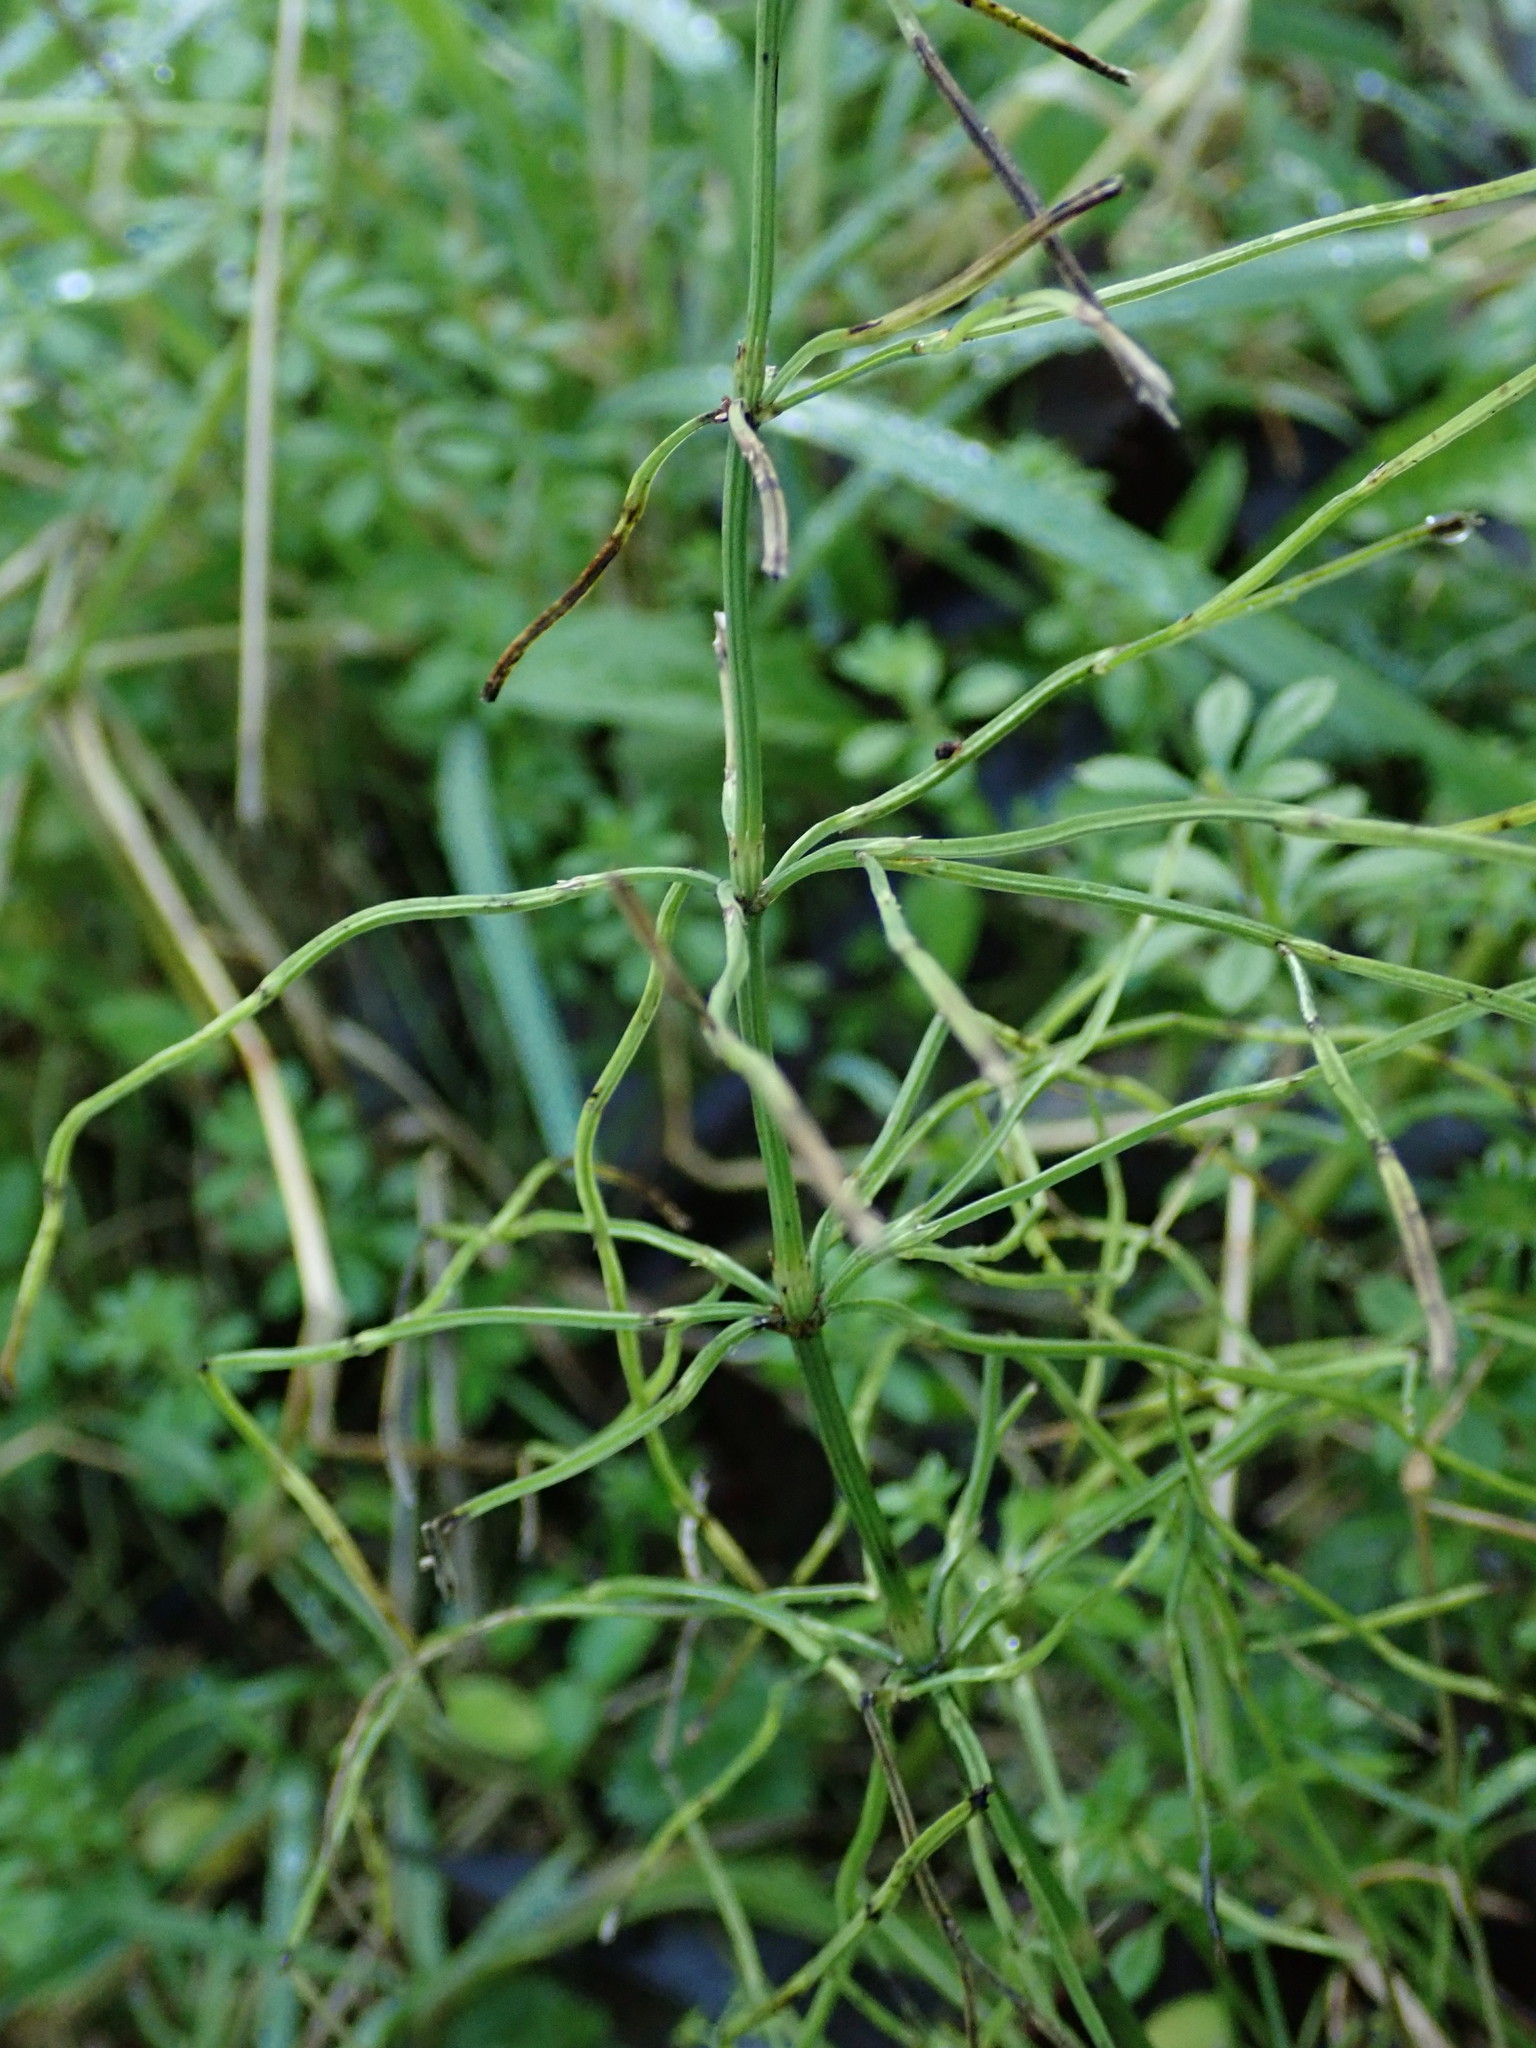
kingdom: Plantae
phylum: Tracheophyta
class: Polypodiopsida
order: Equisetales
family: Equisetaceae
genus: Equisetum
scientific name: Equisetum arvense
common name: Field horsetail
